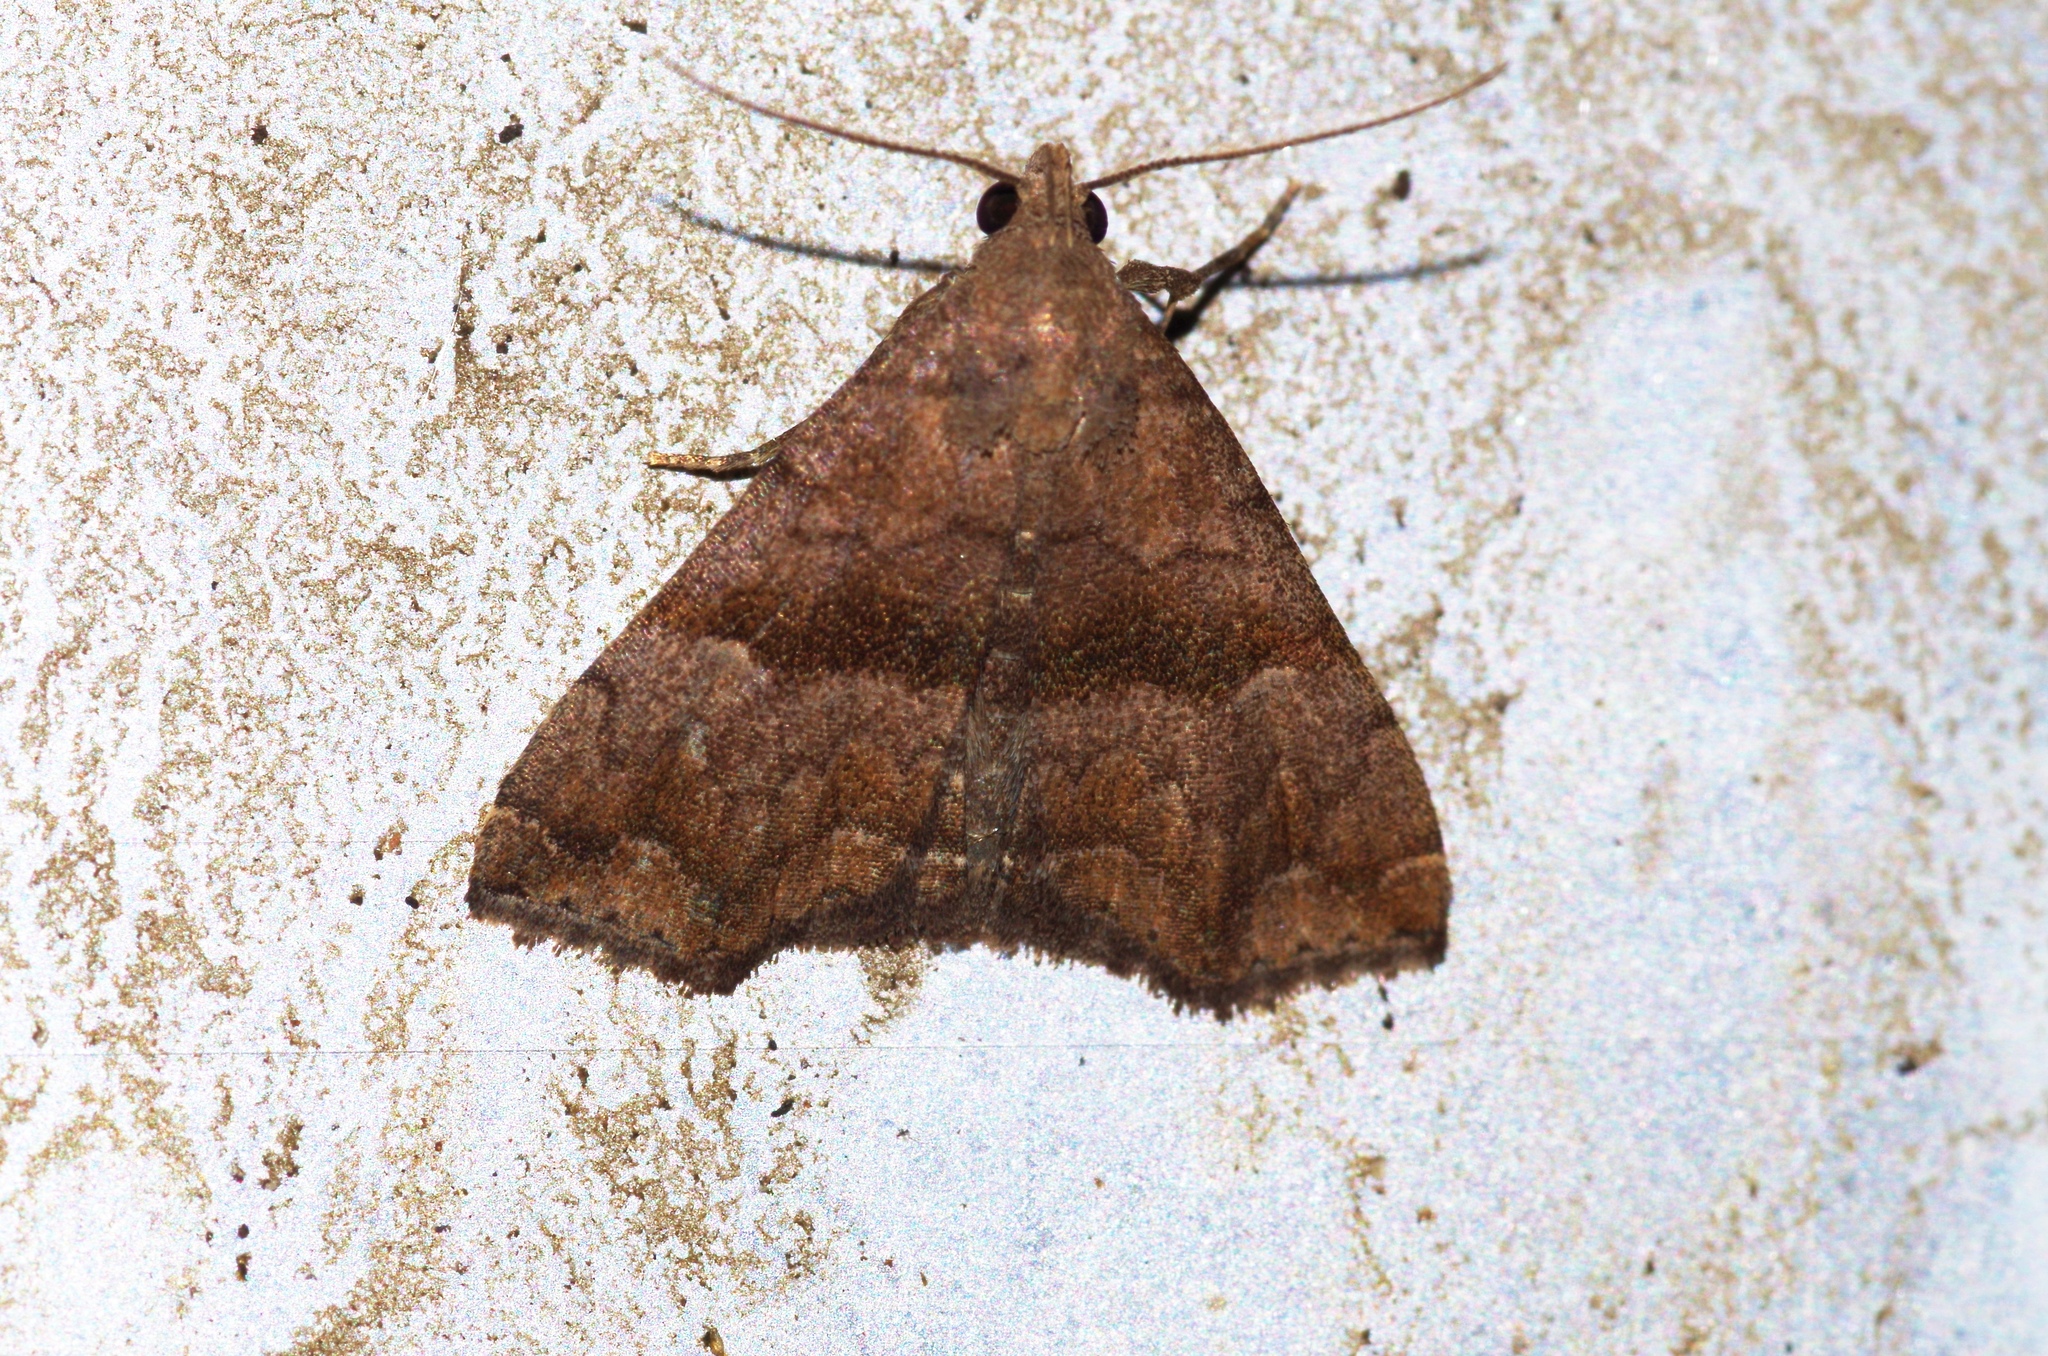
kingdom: Animalia
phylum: Arthropoda
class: Insecta
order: Lepidoptera
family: Erebidae
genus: Polypogon
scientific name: Polypogon Hipoepa fractalis
